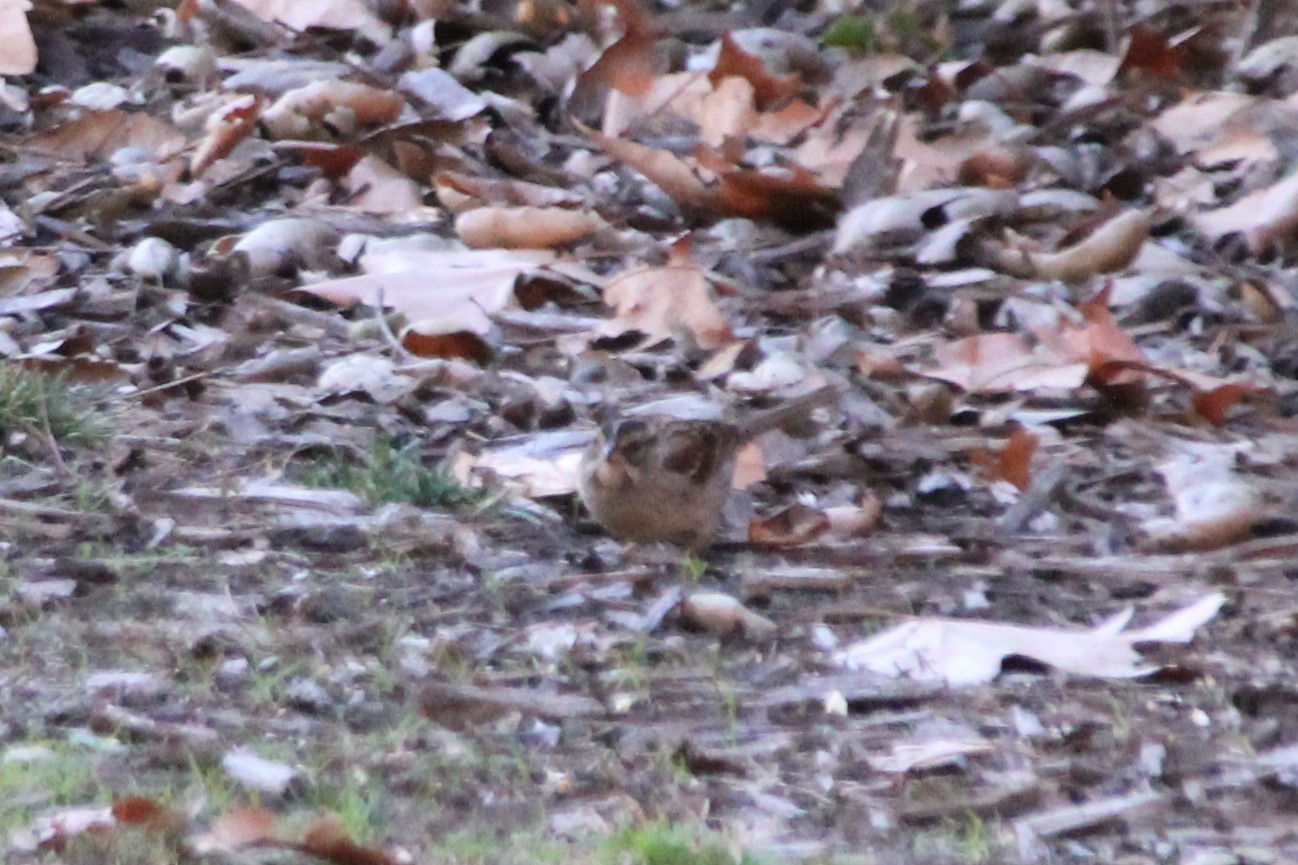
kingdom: Animalia
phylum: Chordata
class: Aves
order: Passeriformes
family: Passerellidae
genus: Zonotrichia
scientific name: Zonotrichia albicollis
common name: White-throated sparrow
